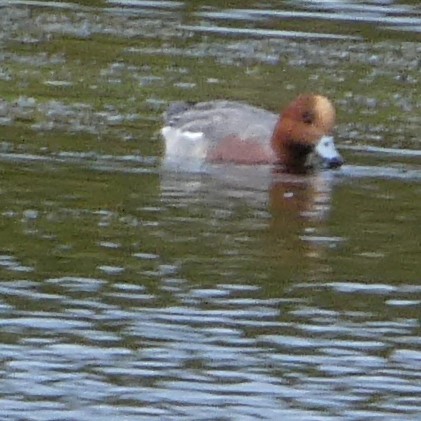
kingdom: Animalia
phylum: Chordata
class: Aves
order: Anseriformes
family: Anatidae
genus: Mareca
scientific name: Mareca penelope
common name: Eurasian wigeon
